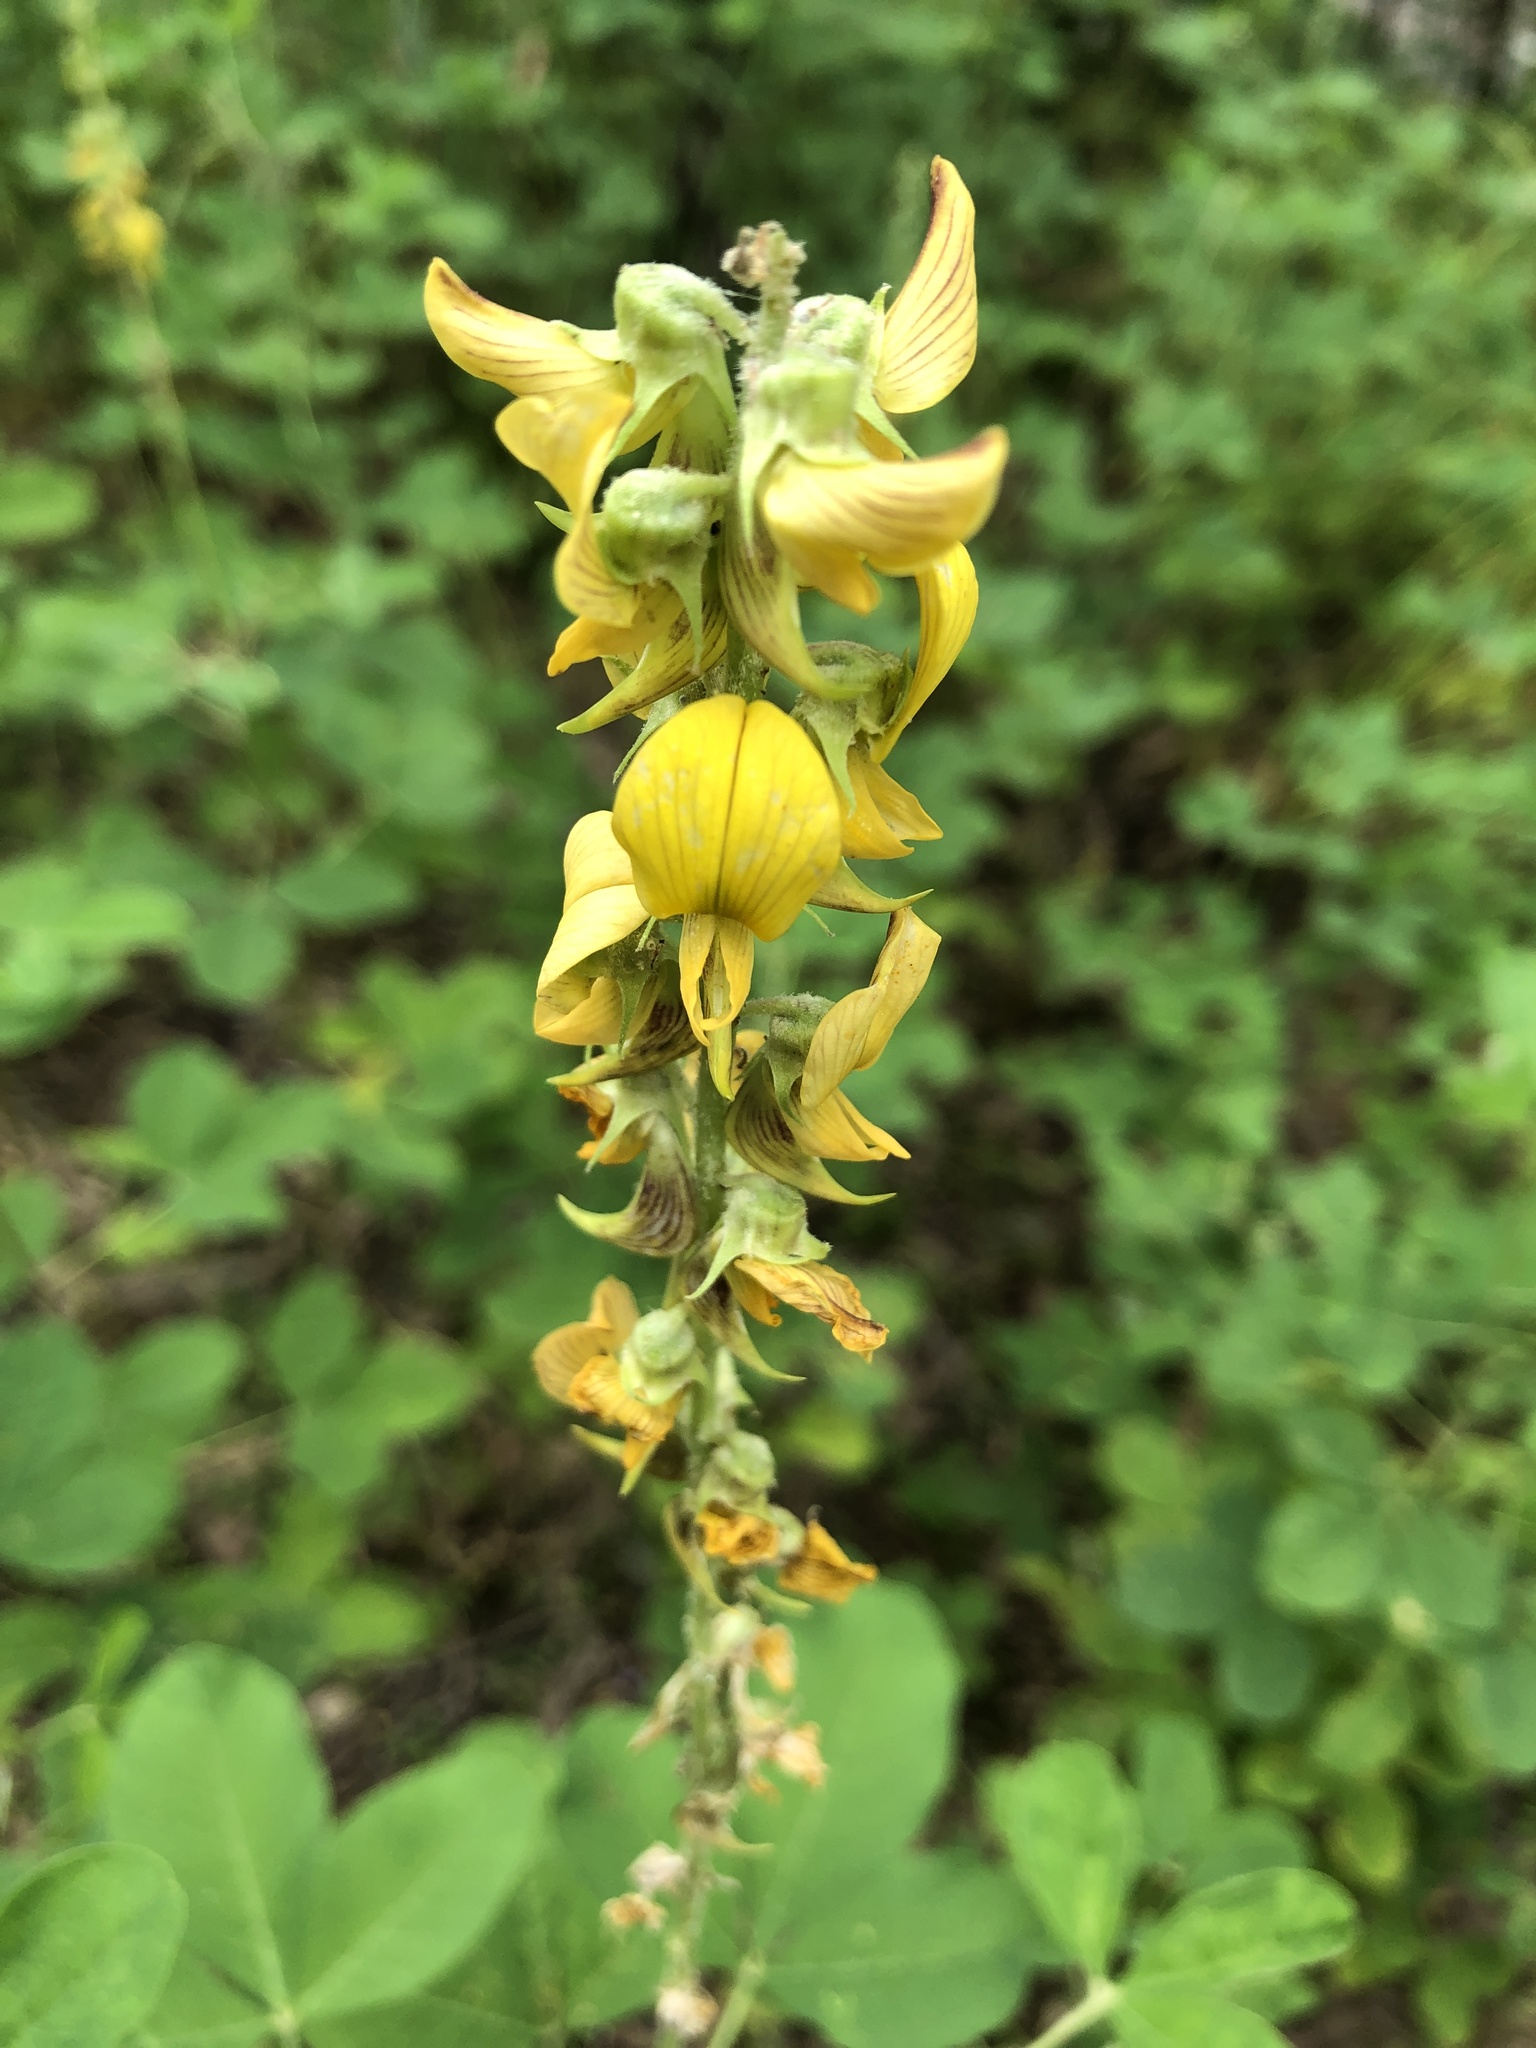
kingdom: Plantae
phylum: Tracheophyta
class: Magnoliopsida
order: Fabales
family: Fabaceae
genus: Crotalaria
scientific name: Crotalaria pallida
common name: Smooth rattlebox
